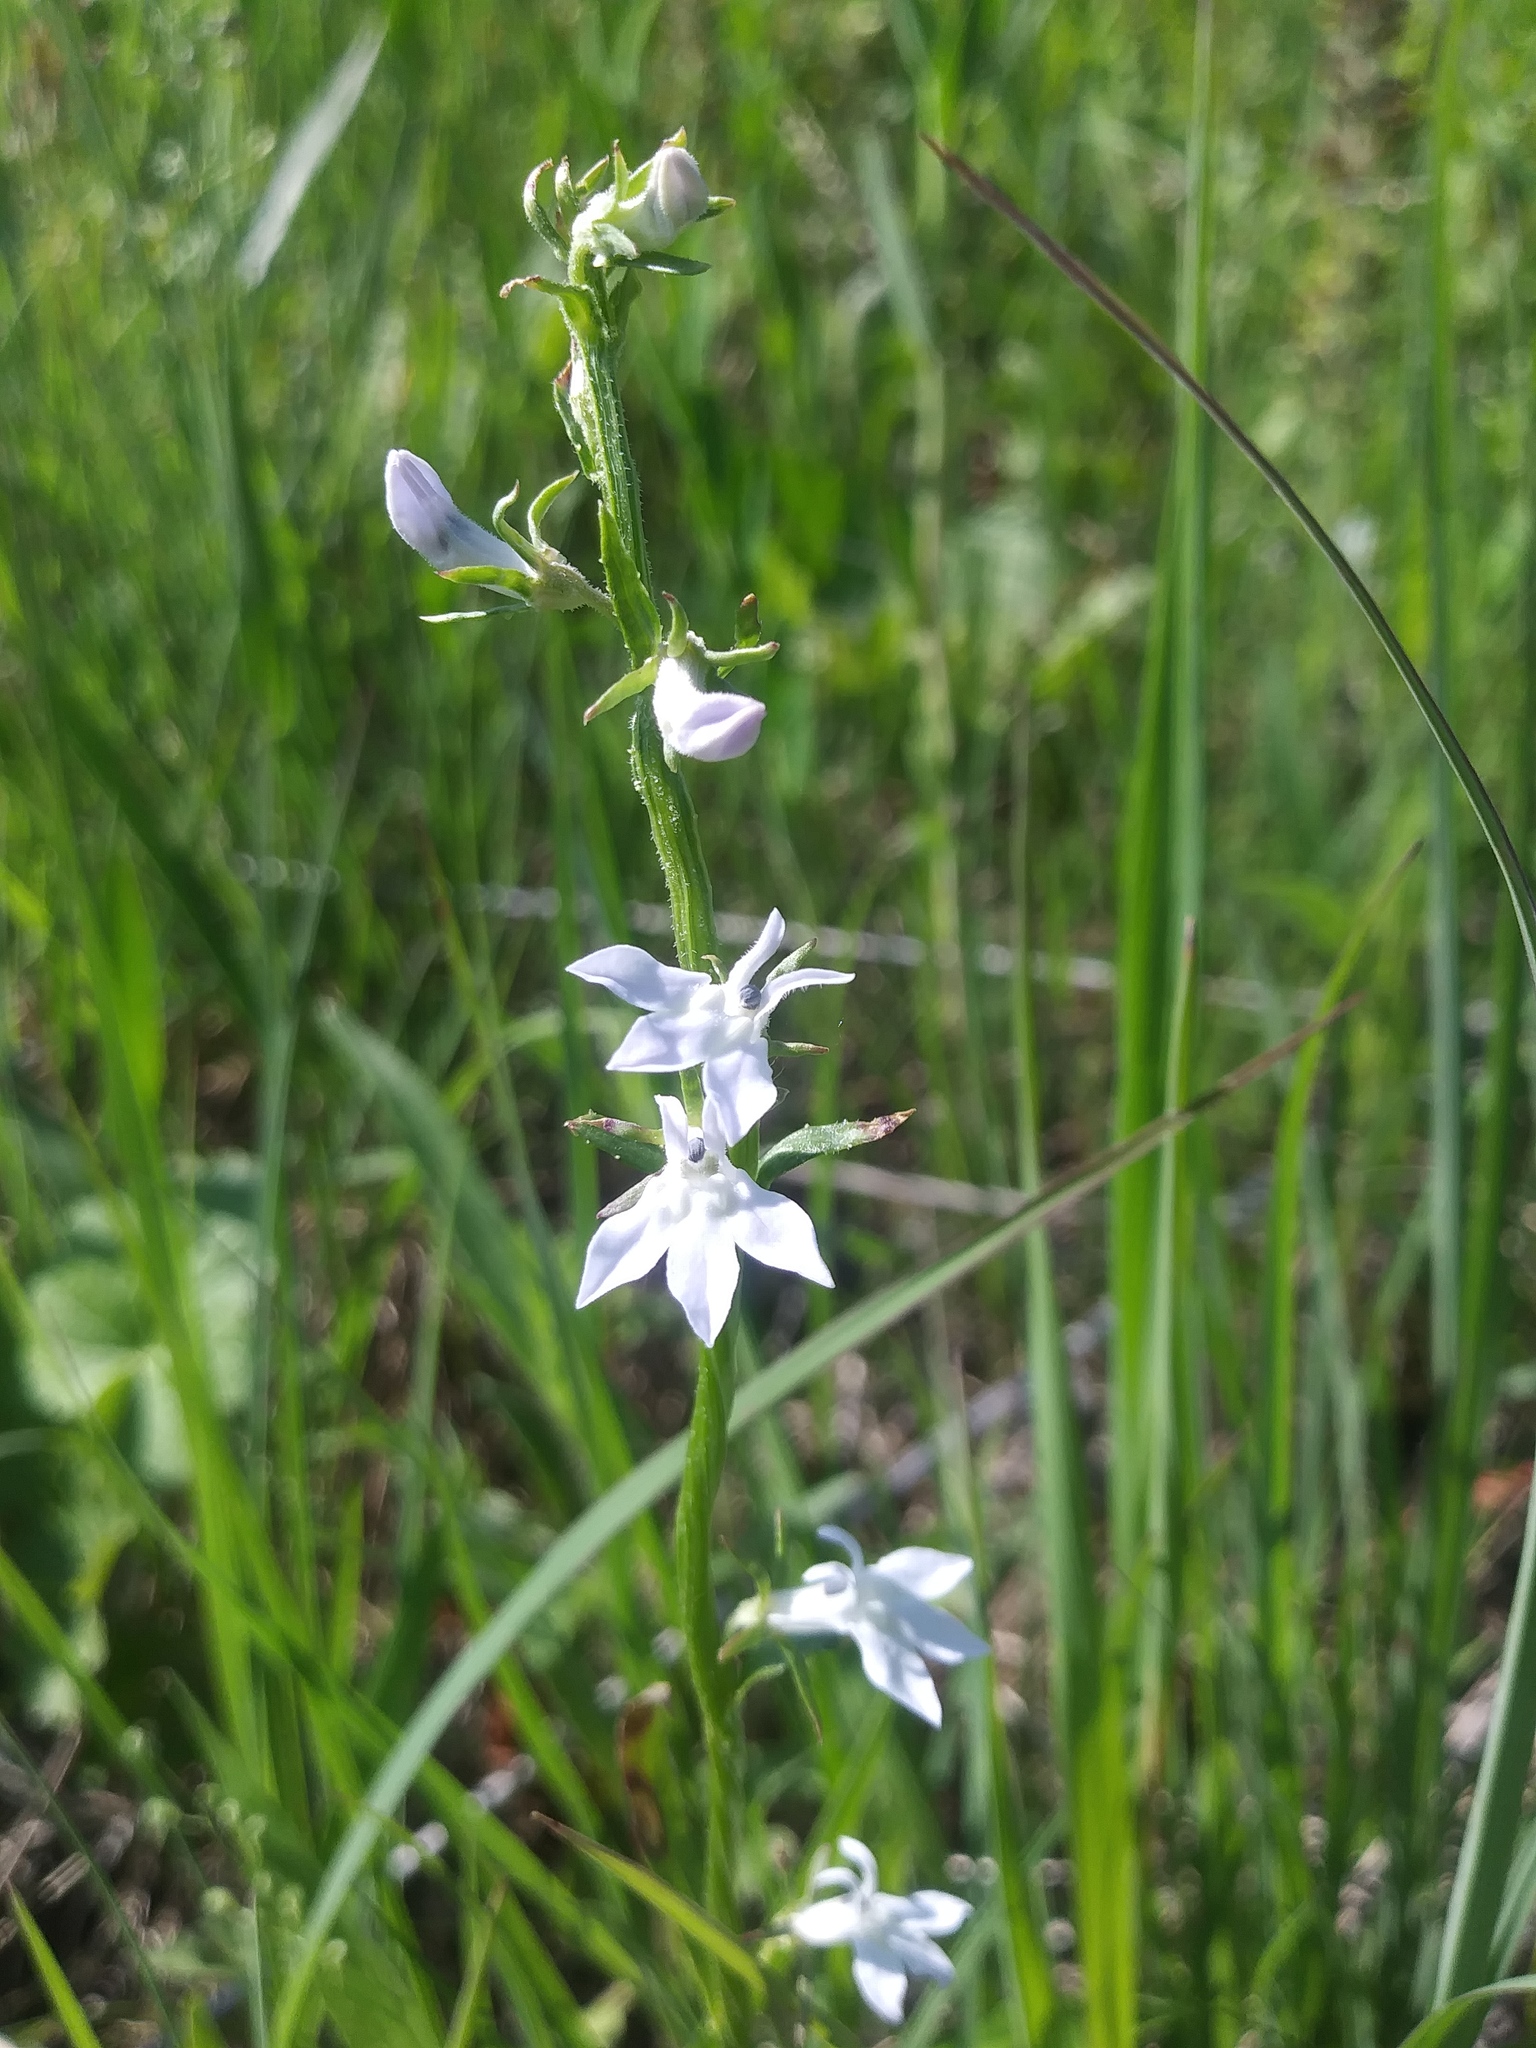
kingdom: Plantae
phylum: Tracheophyta
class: Magnoliopsida
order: Asterales
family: Campanulaceae
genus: Lobelia
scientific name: Lobelia spicata
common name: Pale-spike lobelia
